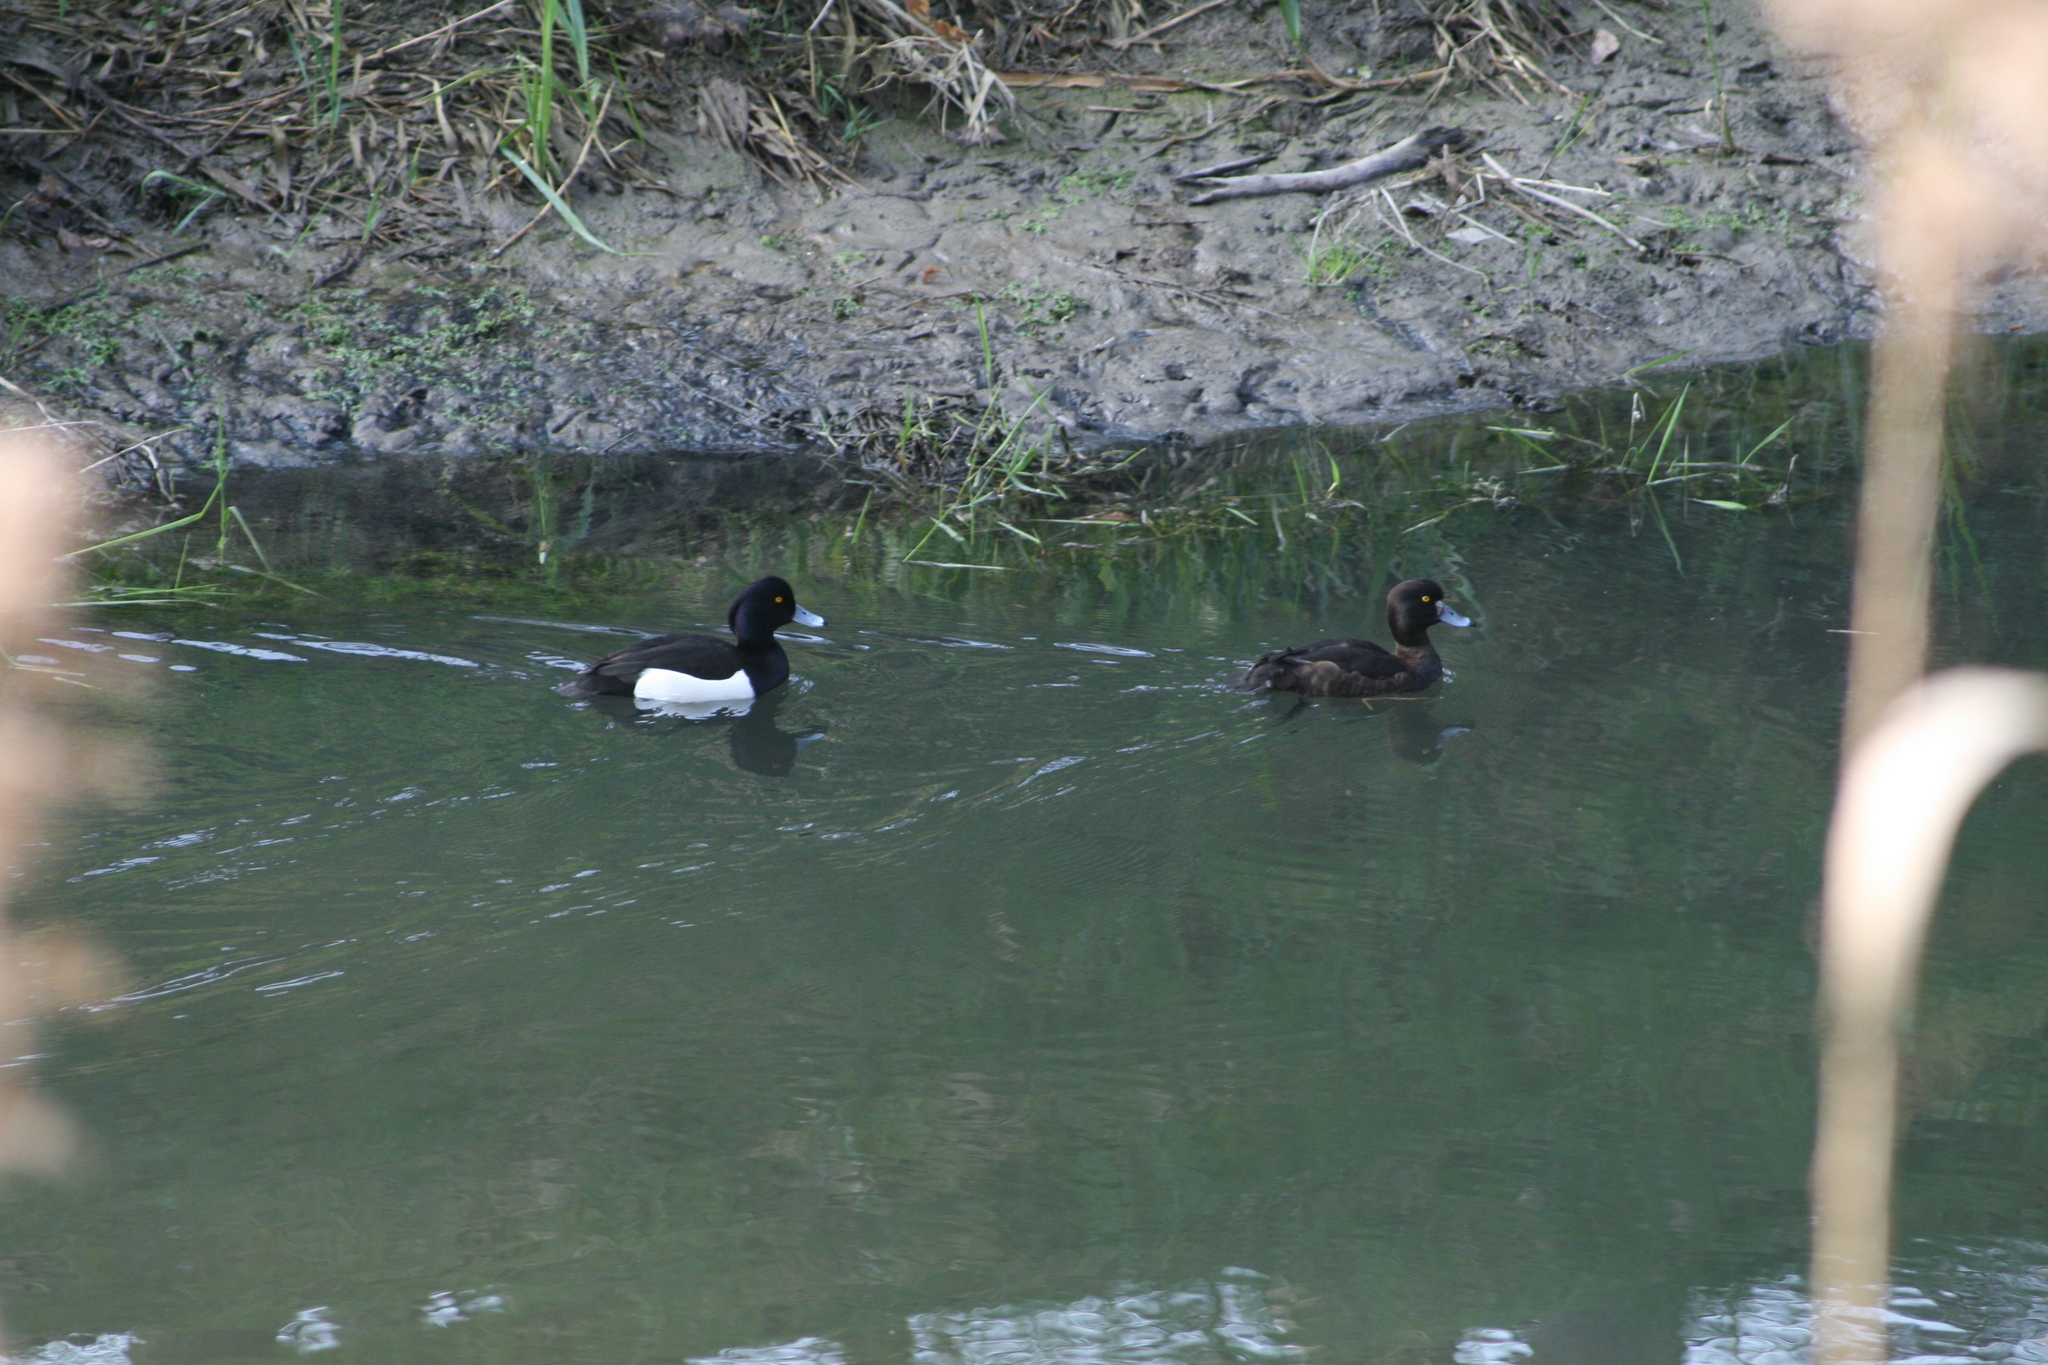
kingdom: Animalia
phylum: Chordata
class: Aves
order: Anseriformes
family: Anatidae
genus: Aythya
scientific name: Aythya fuligula
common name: Tufted duck
